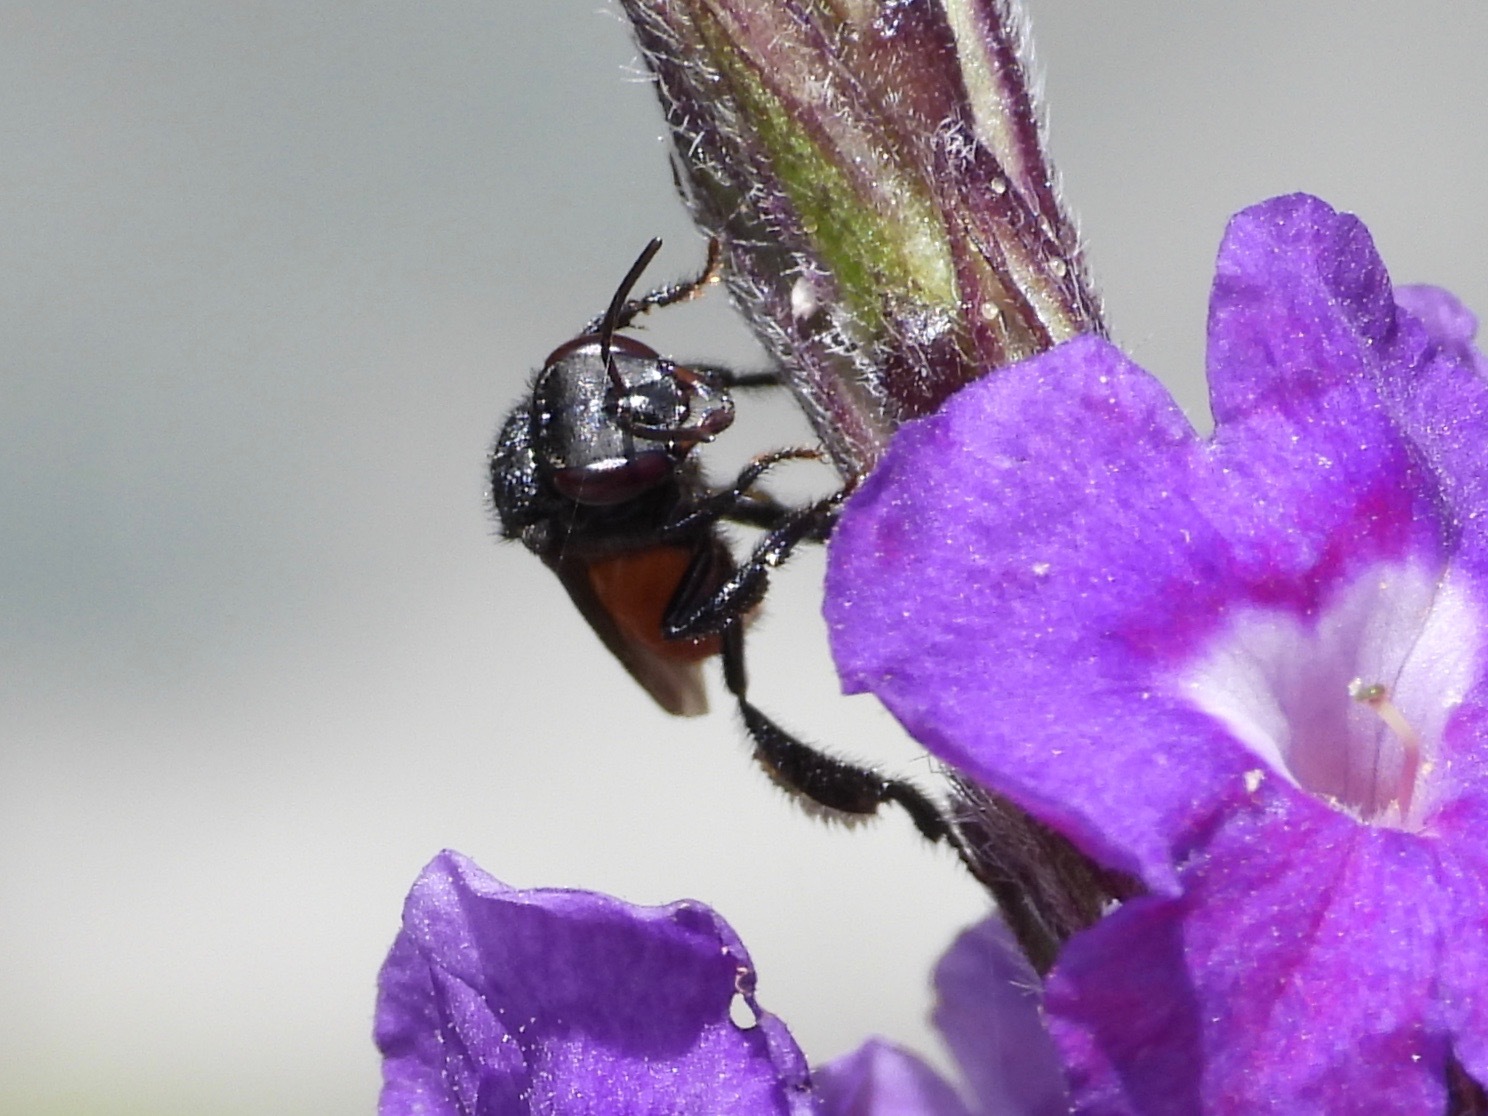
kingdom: Animalia
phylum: Arthropoda
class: Insecta
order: Hymenoptera
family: Apidae
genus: Trigona
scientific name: Trigona fulviventris
